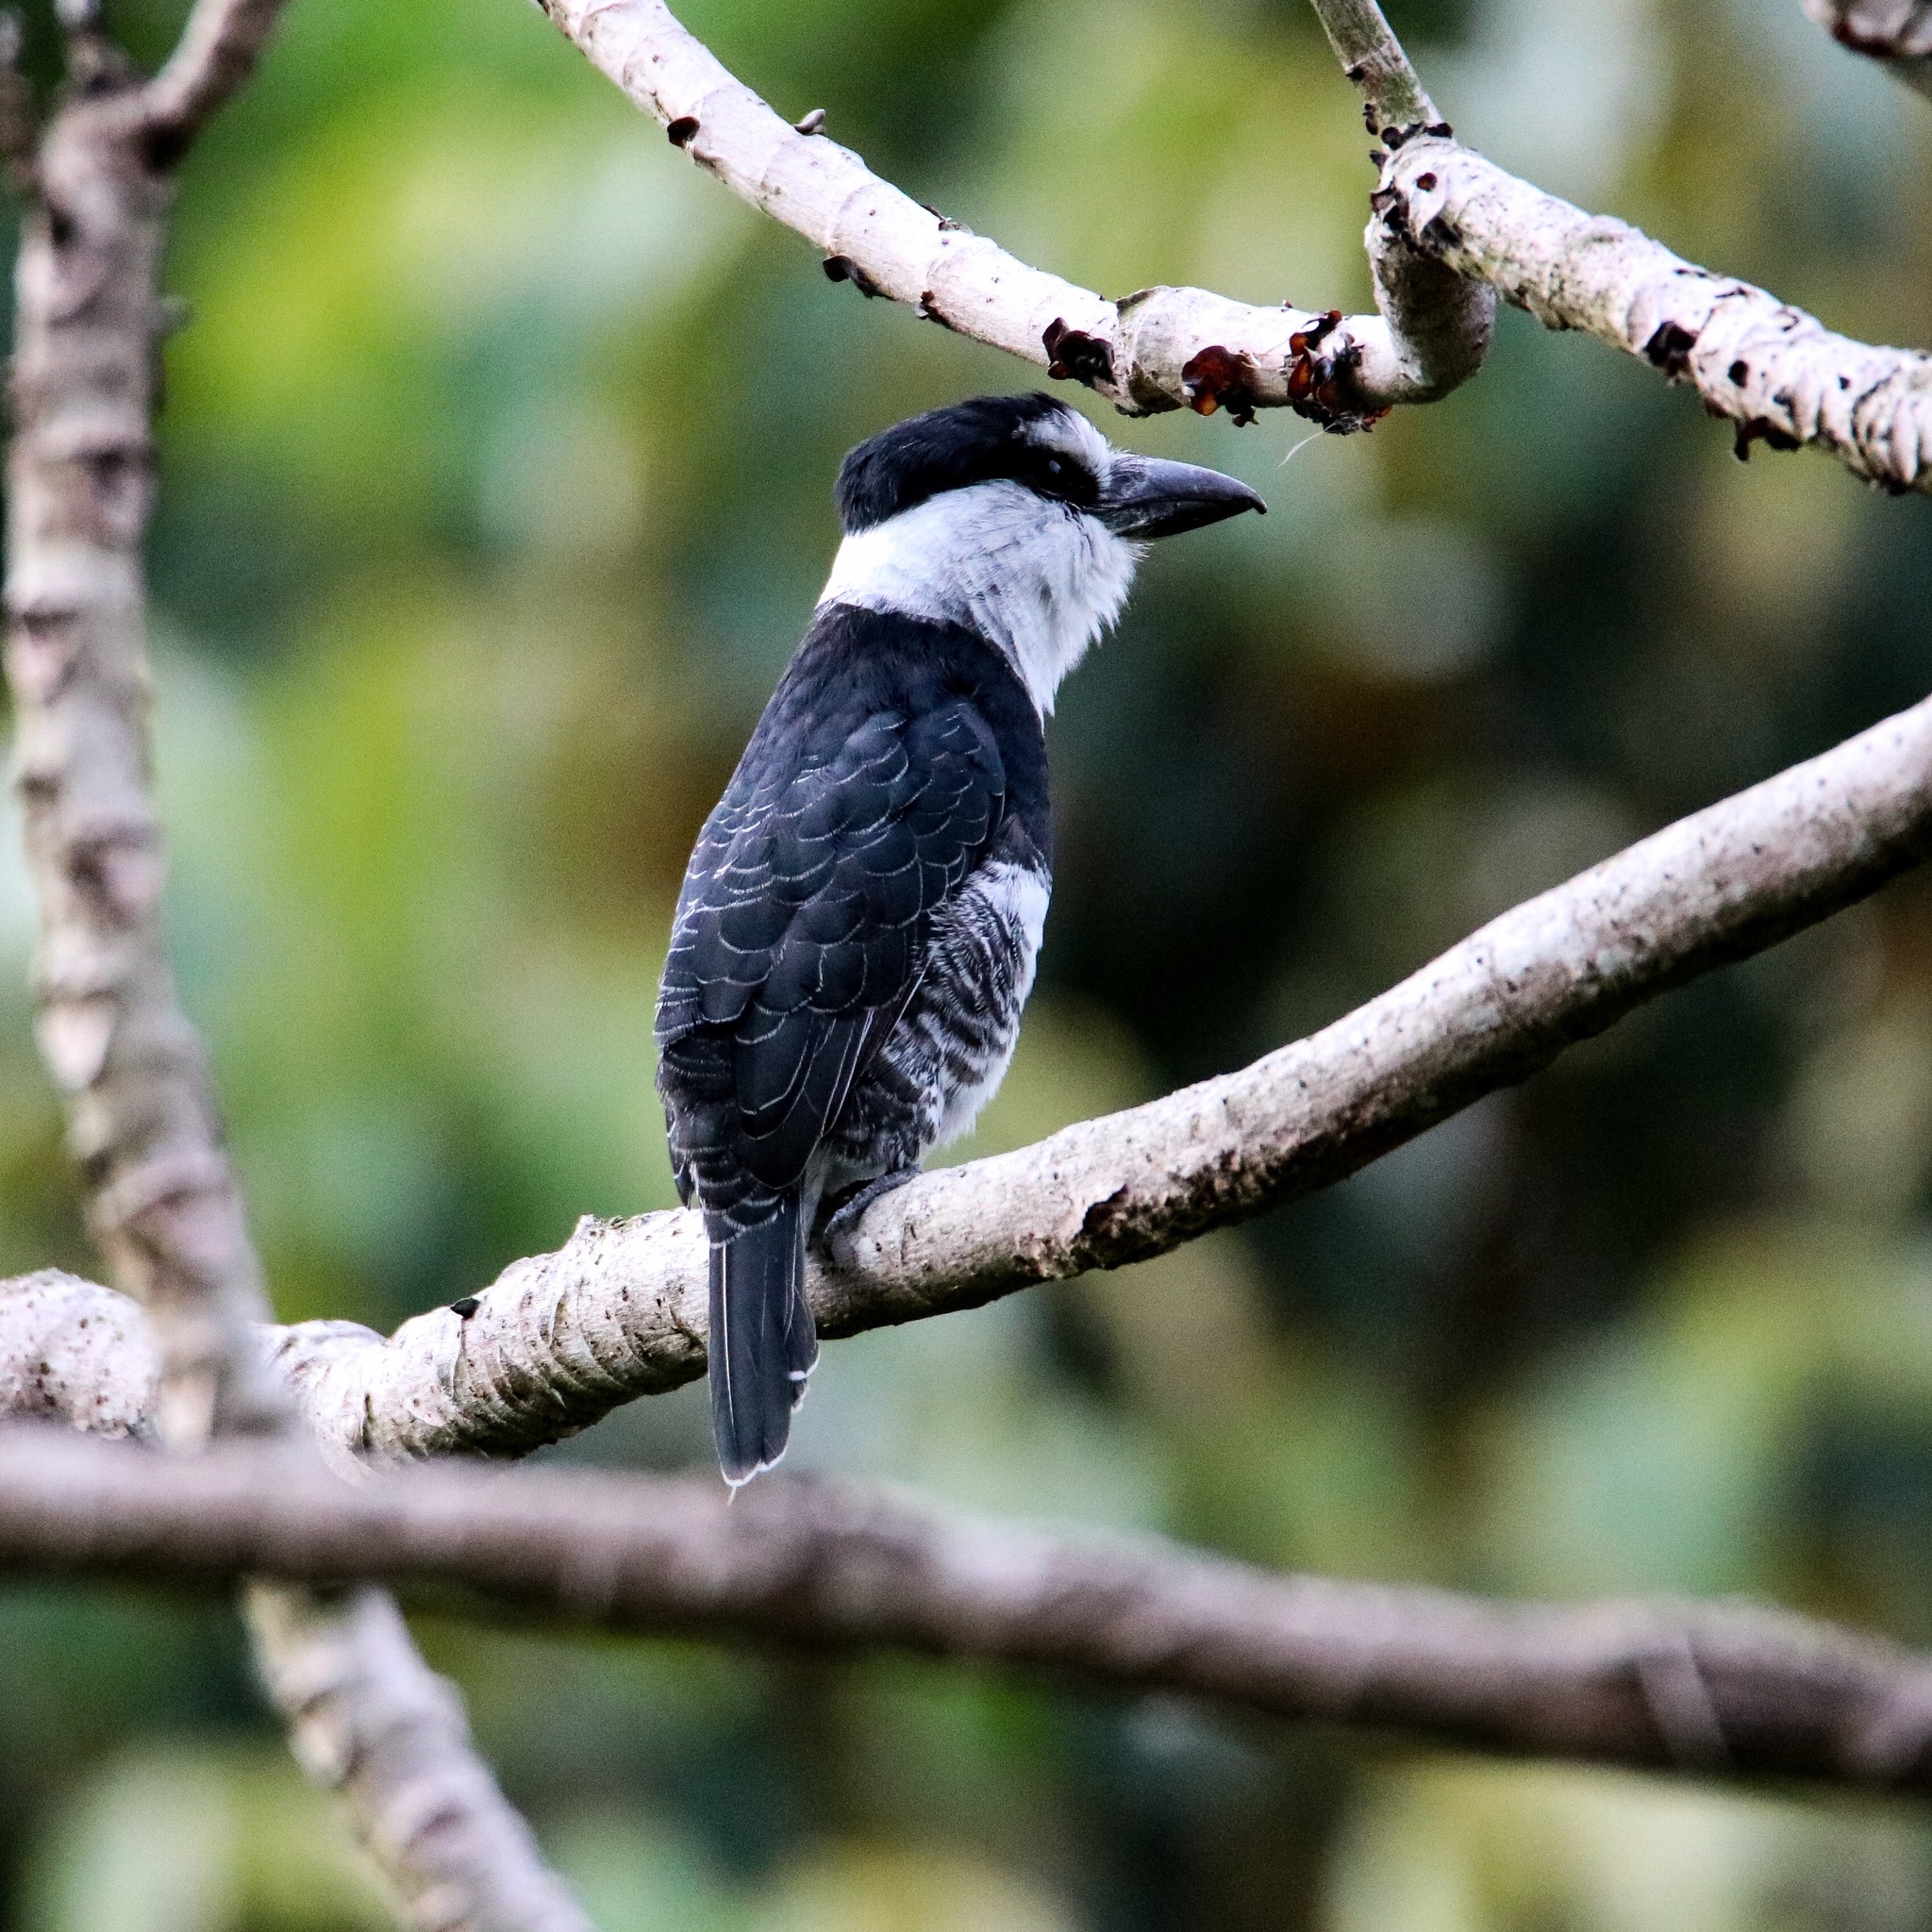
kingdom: Animalia
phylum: Chordata
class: Aves
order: Piciformes
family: Bucconidae
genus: Notharchus
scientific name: Notharchus hyperrhynchus
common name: White-necked puffbird
